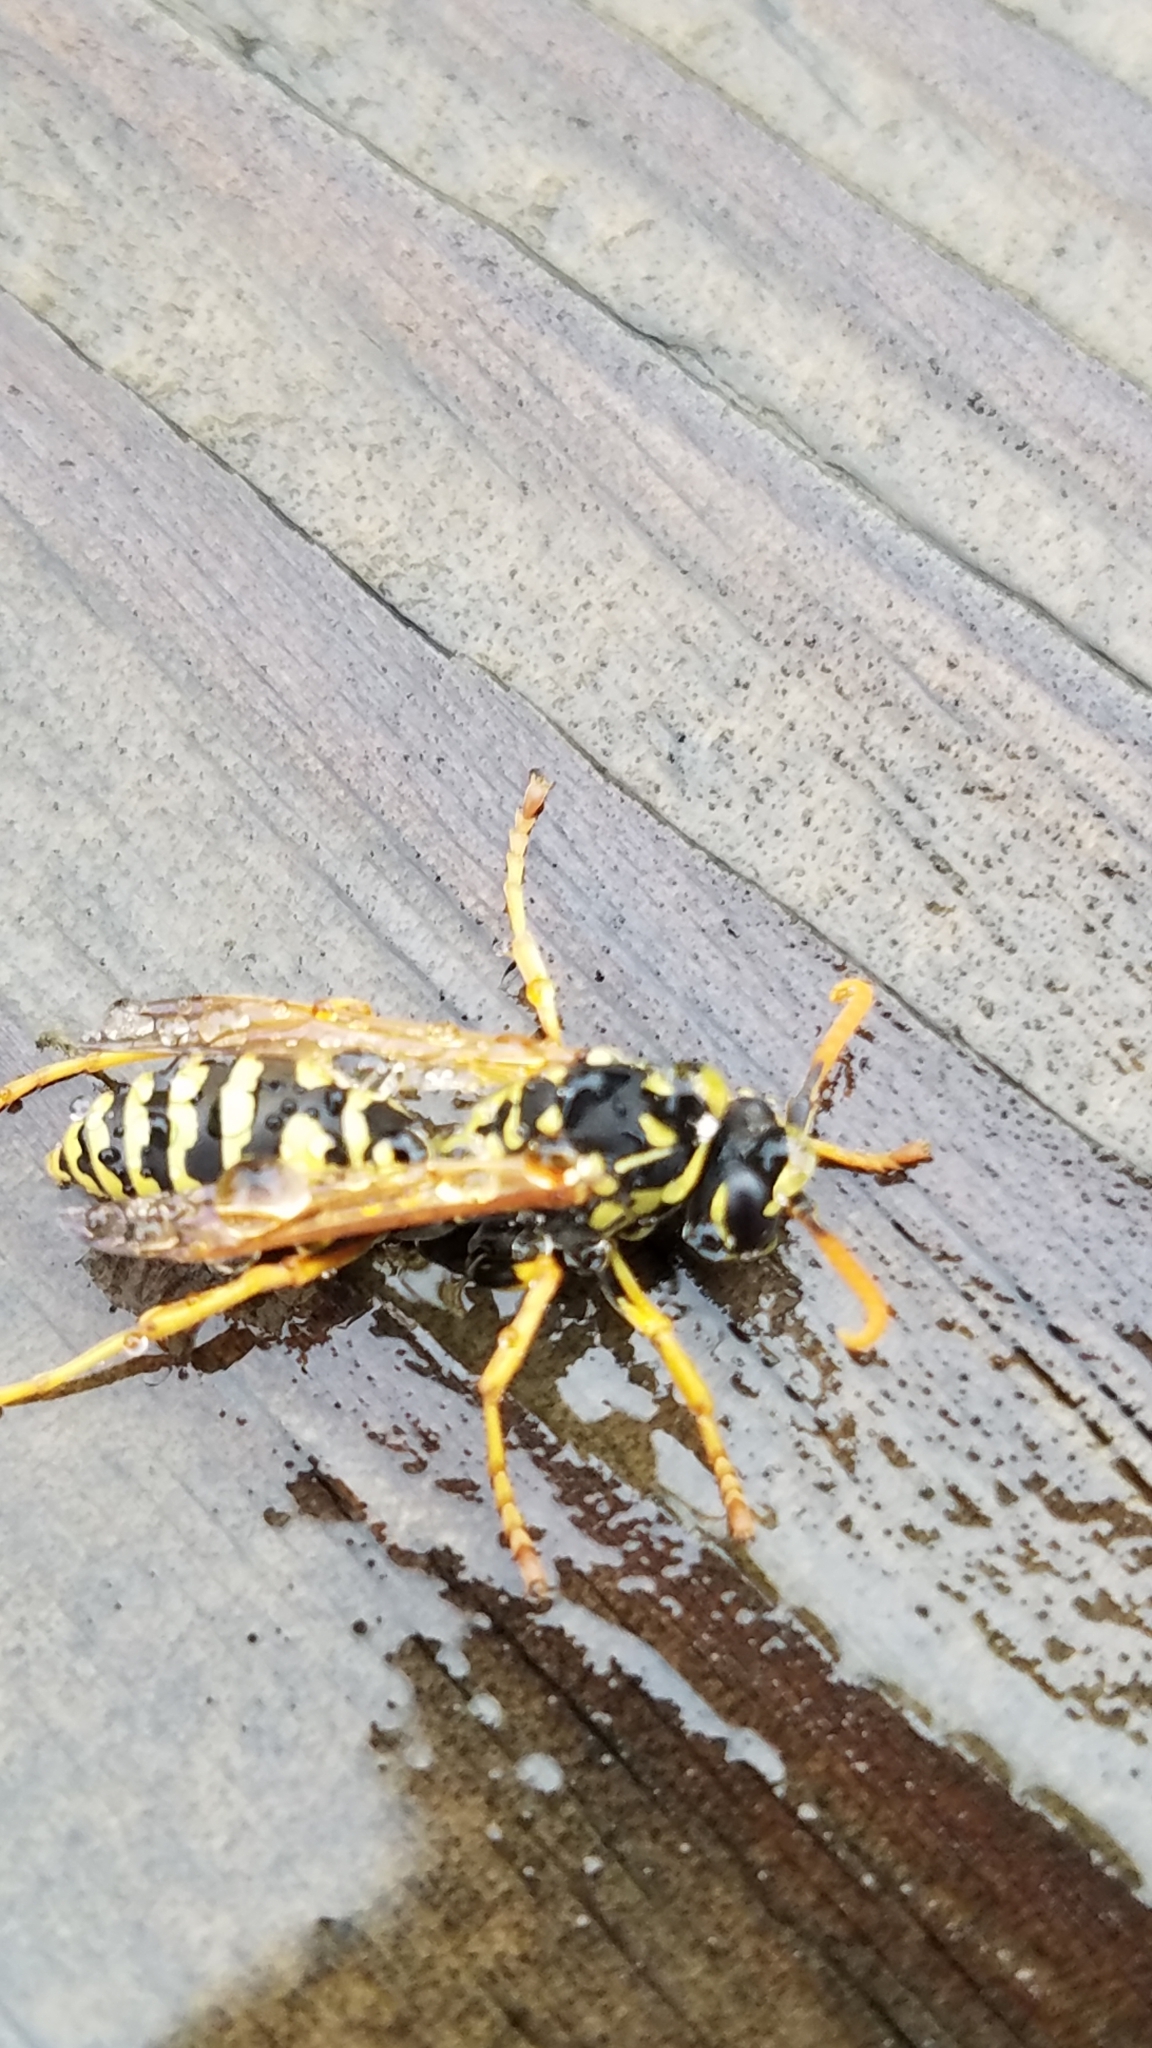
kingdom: Animalia
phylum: Arthropoda
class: Insecta
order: Hymenoptera
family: Eumenidae
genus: Polistes
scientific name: Polistes dominula
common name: Paper wasp
